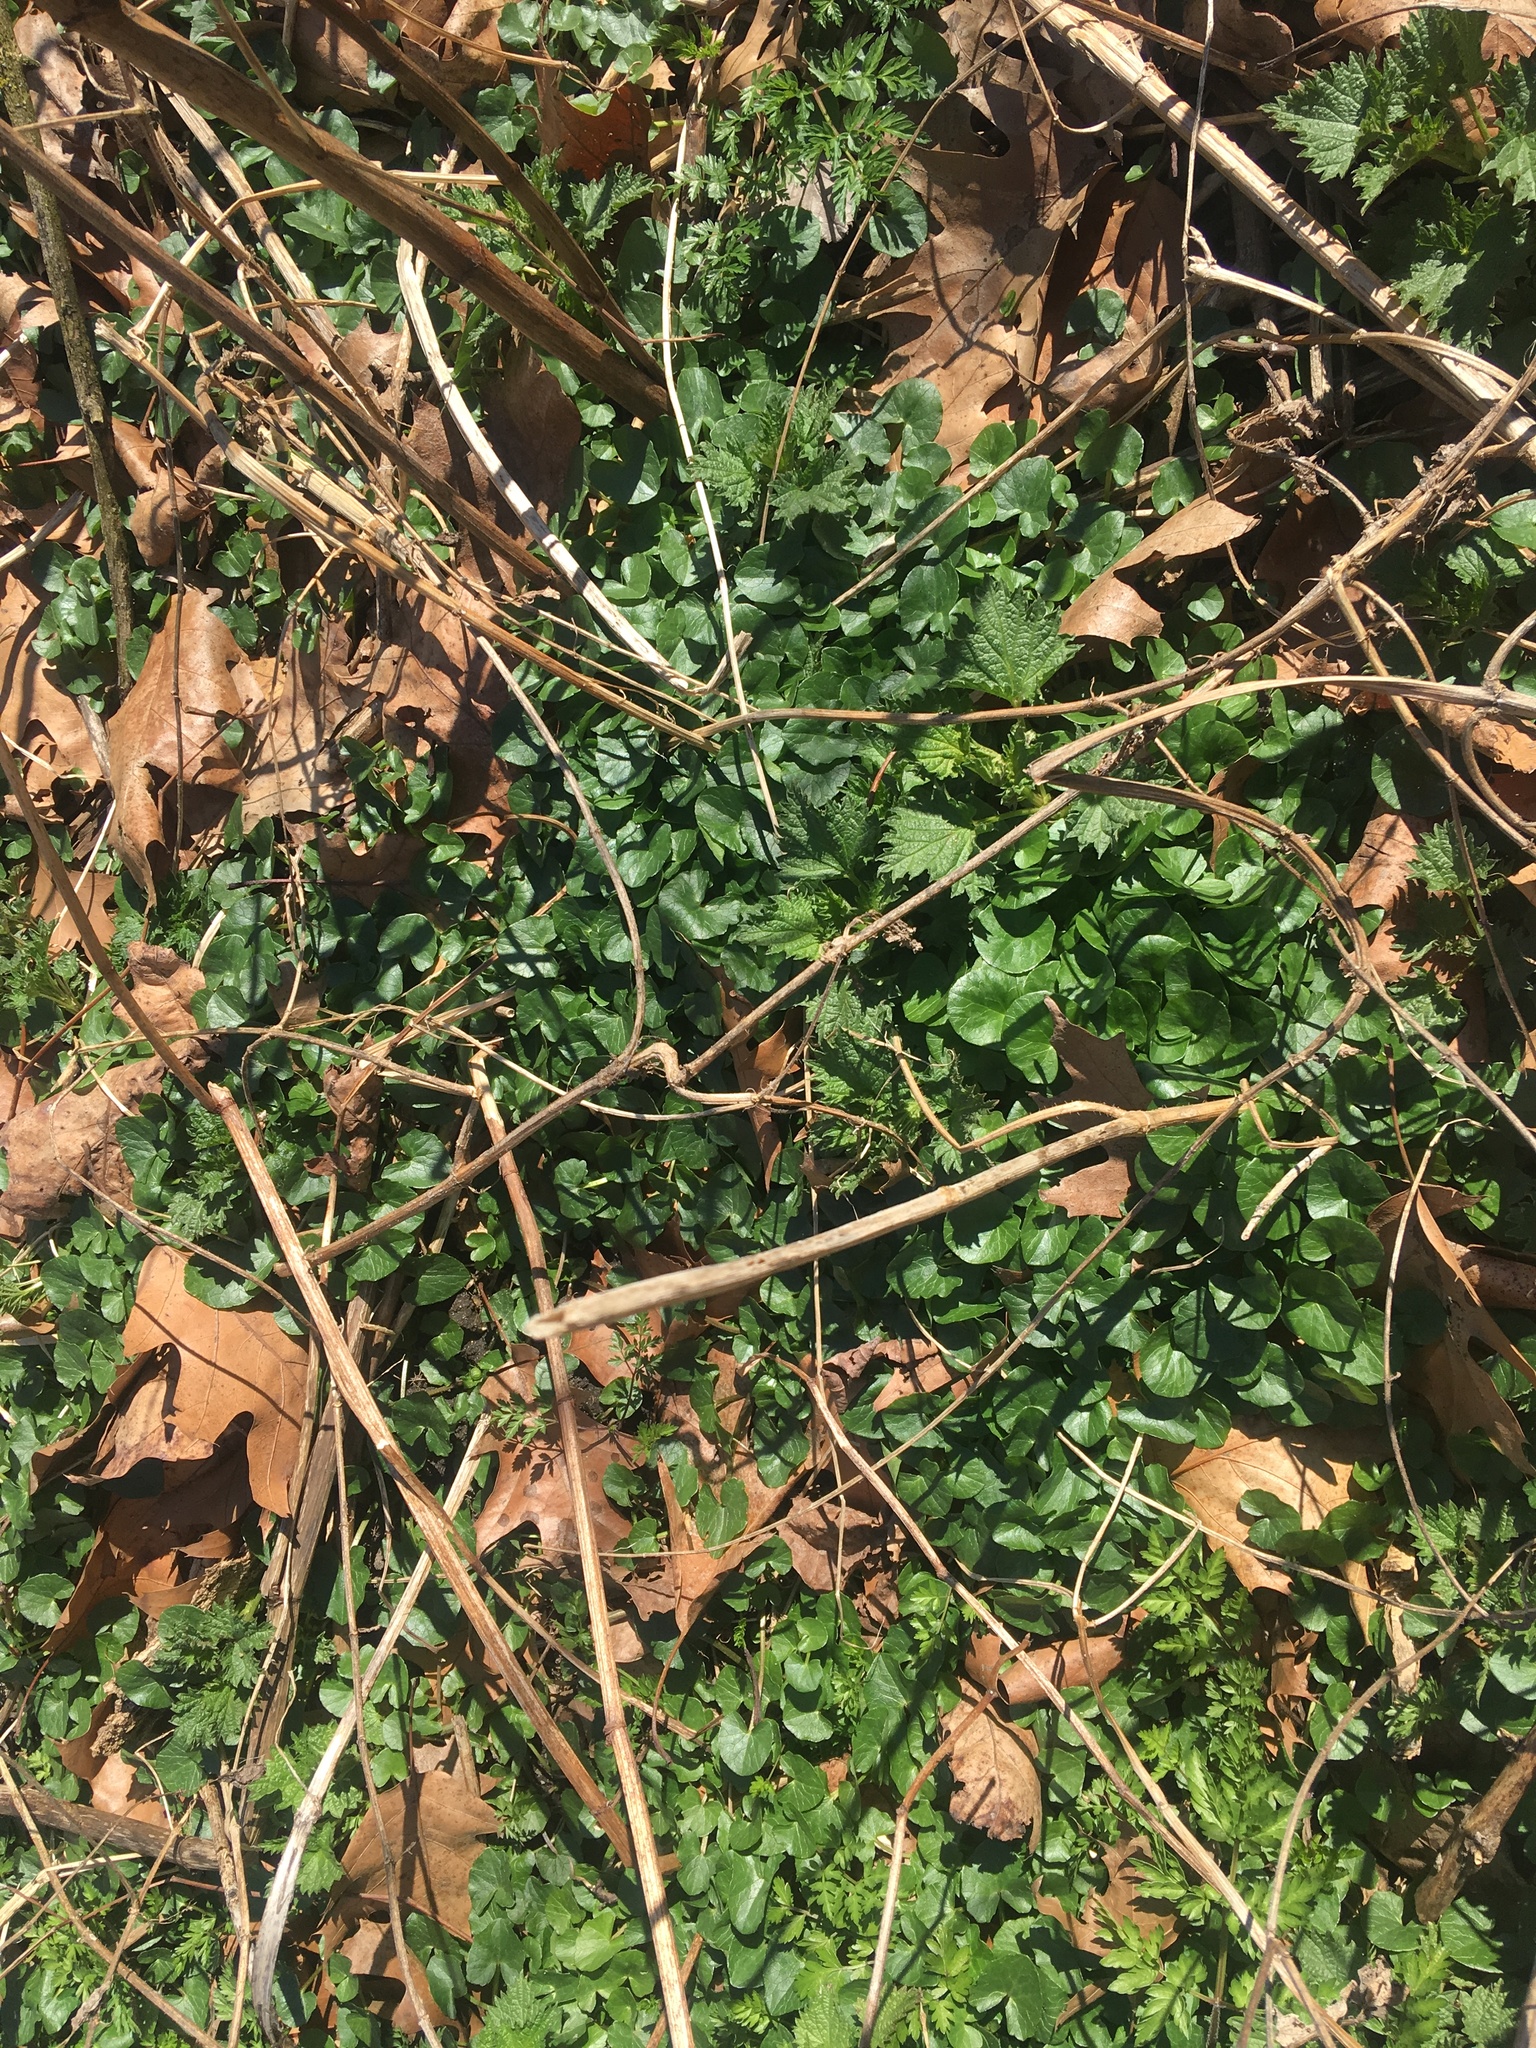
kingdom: Plantae
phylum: Tracheophyta
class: Magnoliopsida
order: Ranunculales
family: Ranunculaceae
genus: Ficaria
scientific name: Ficaria verna
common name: Lesser celandine
